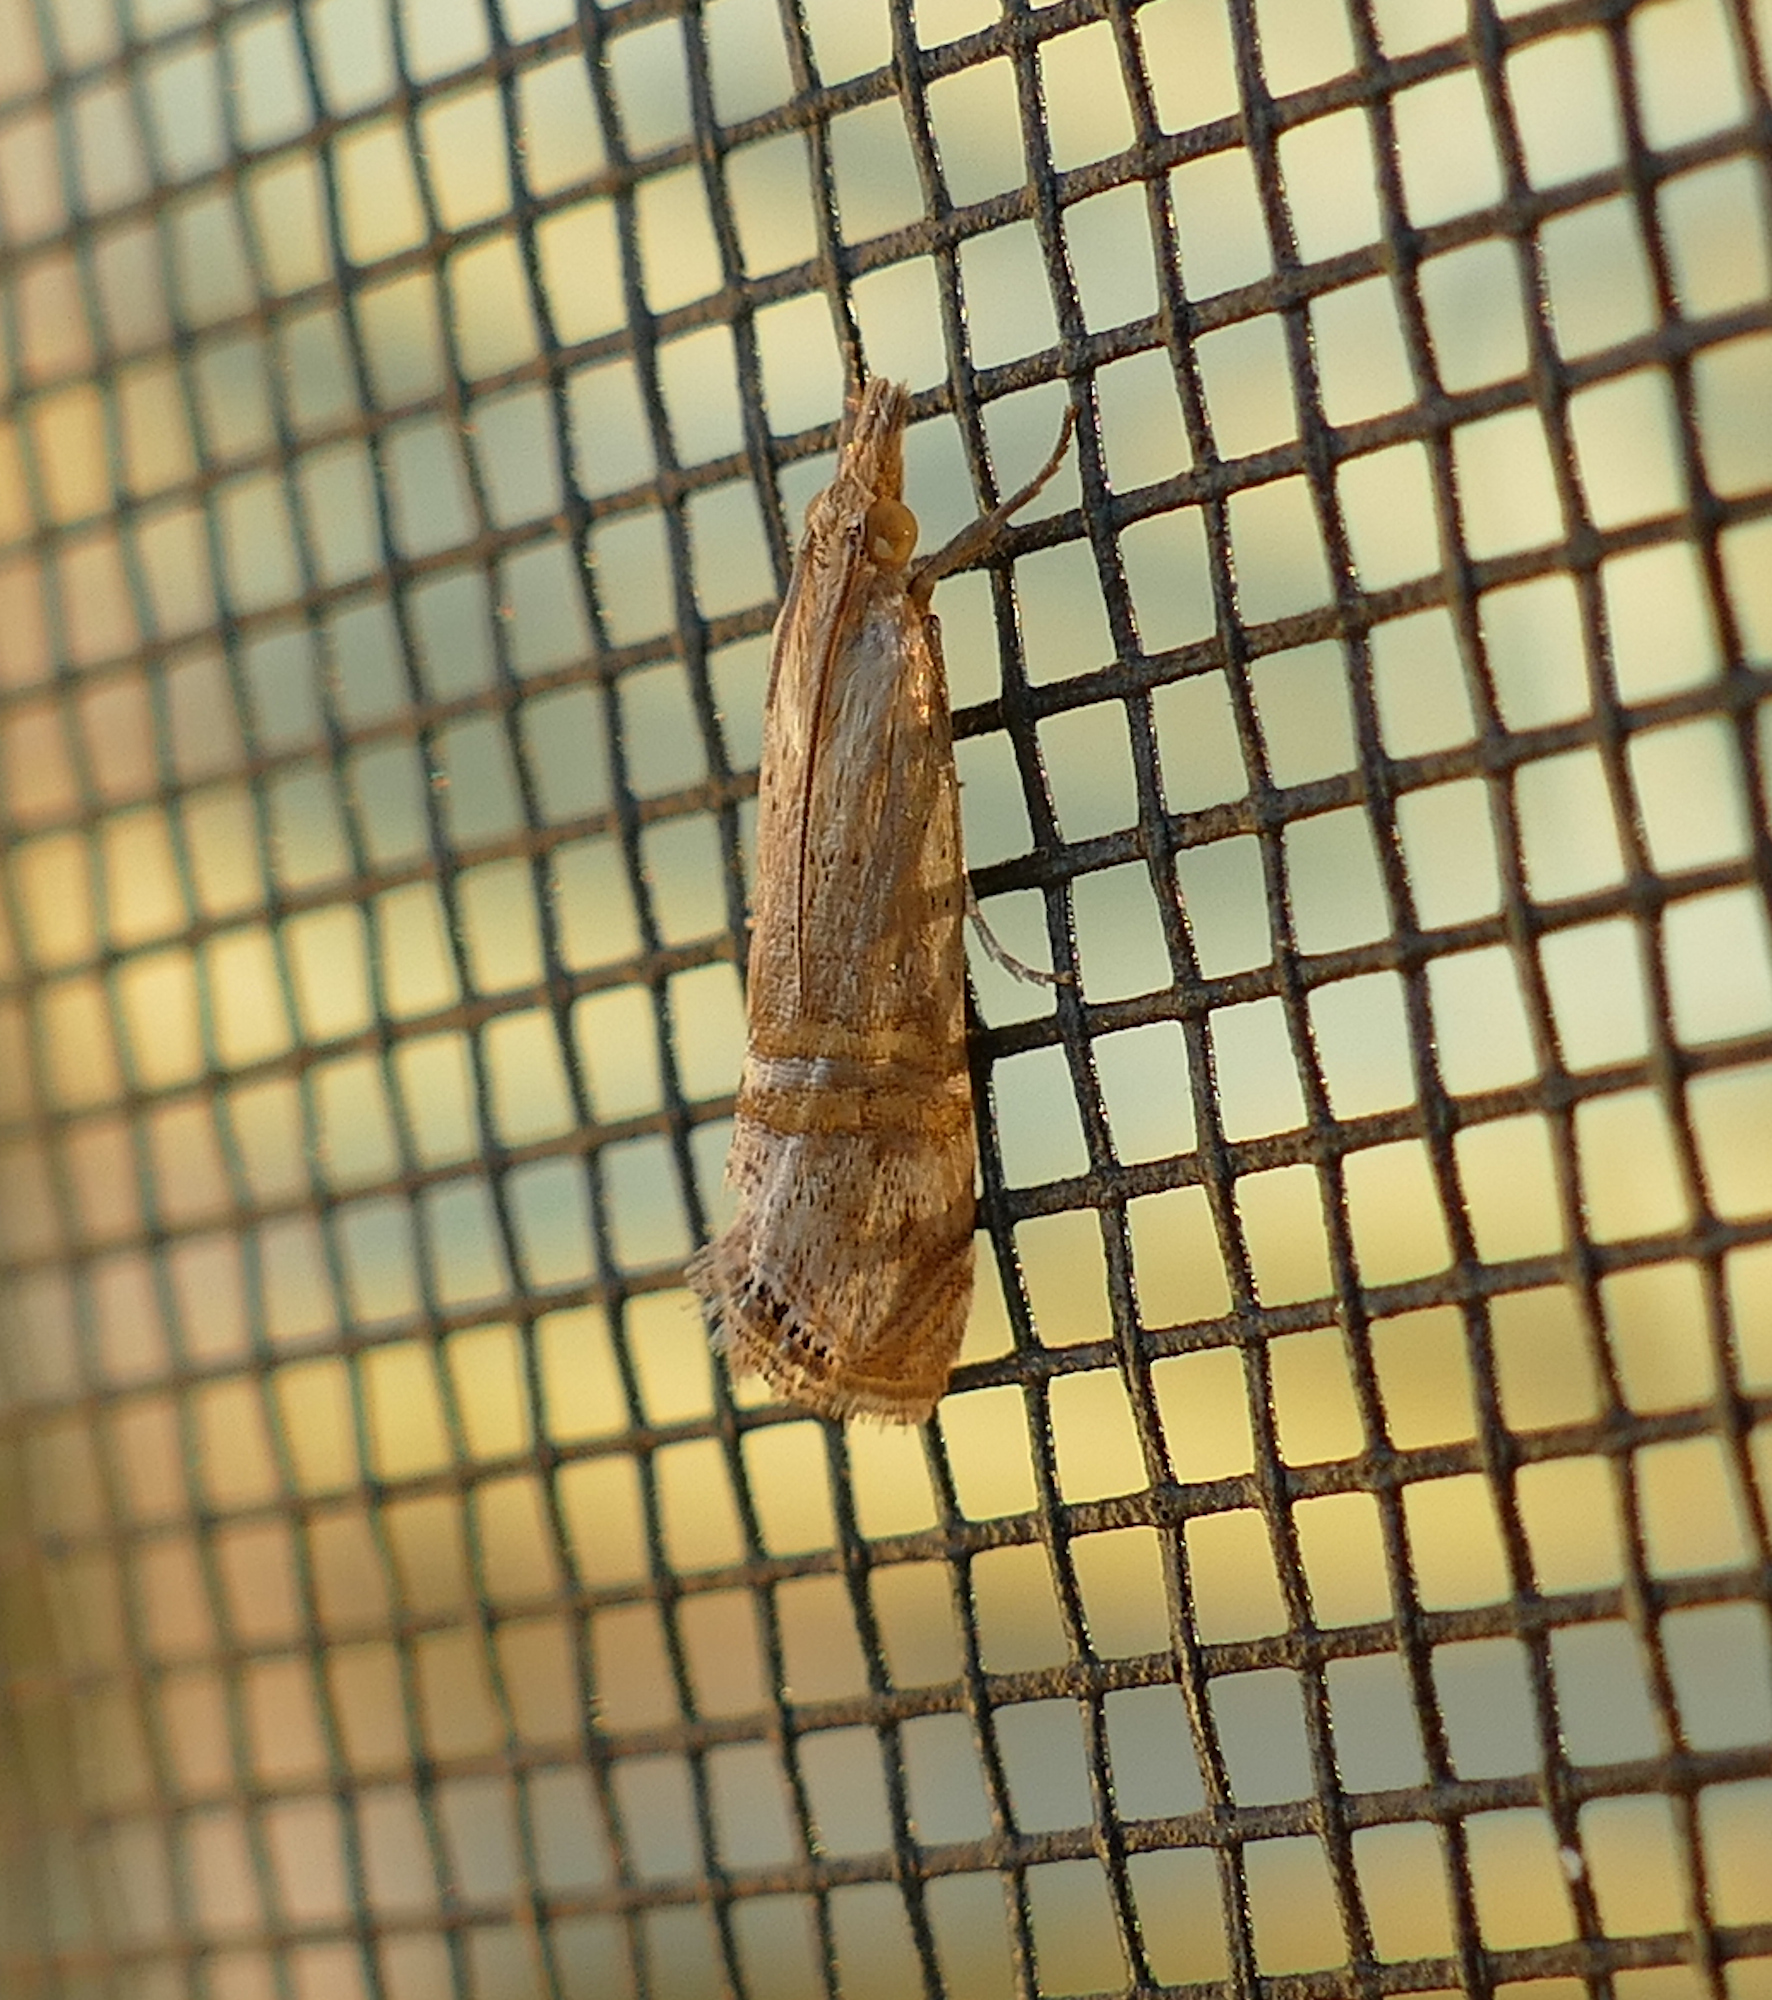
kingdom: Animalia
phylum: Arthropoda
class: Insecta
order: Lepidoptera
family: Crambidae
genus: Euchromius
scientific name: Euchromius ocellea
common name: Necklace veneer moth
